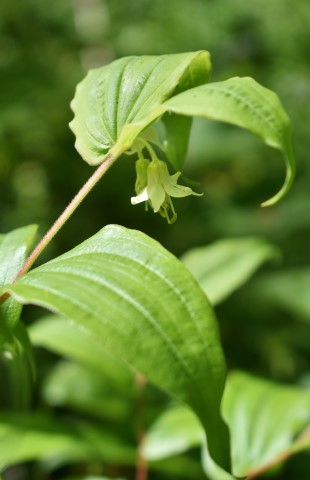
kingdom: Plantae
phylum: Tracheophyta
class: Liliopsida
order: Liliales
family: Liliaceae
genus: Prosartes
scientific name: Prosartes hookeri
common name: Fairy-bells
